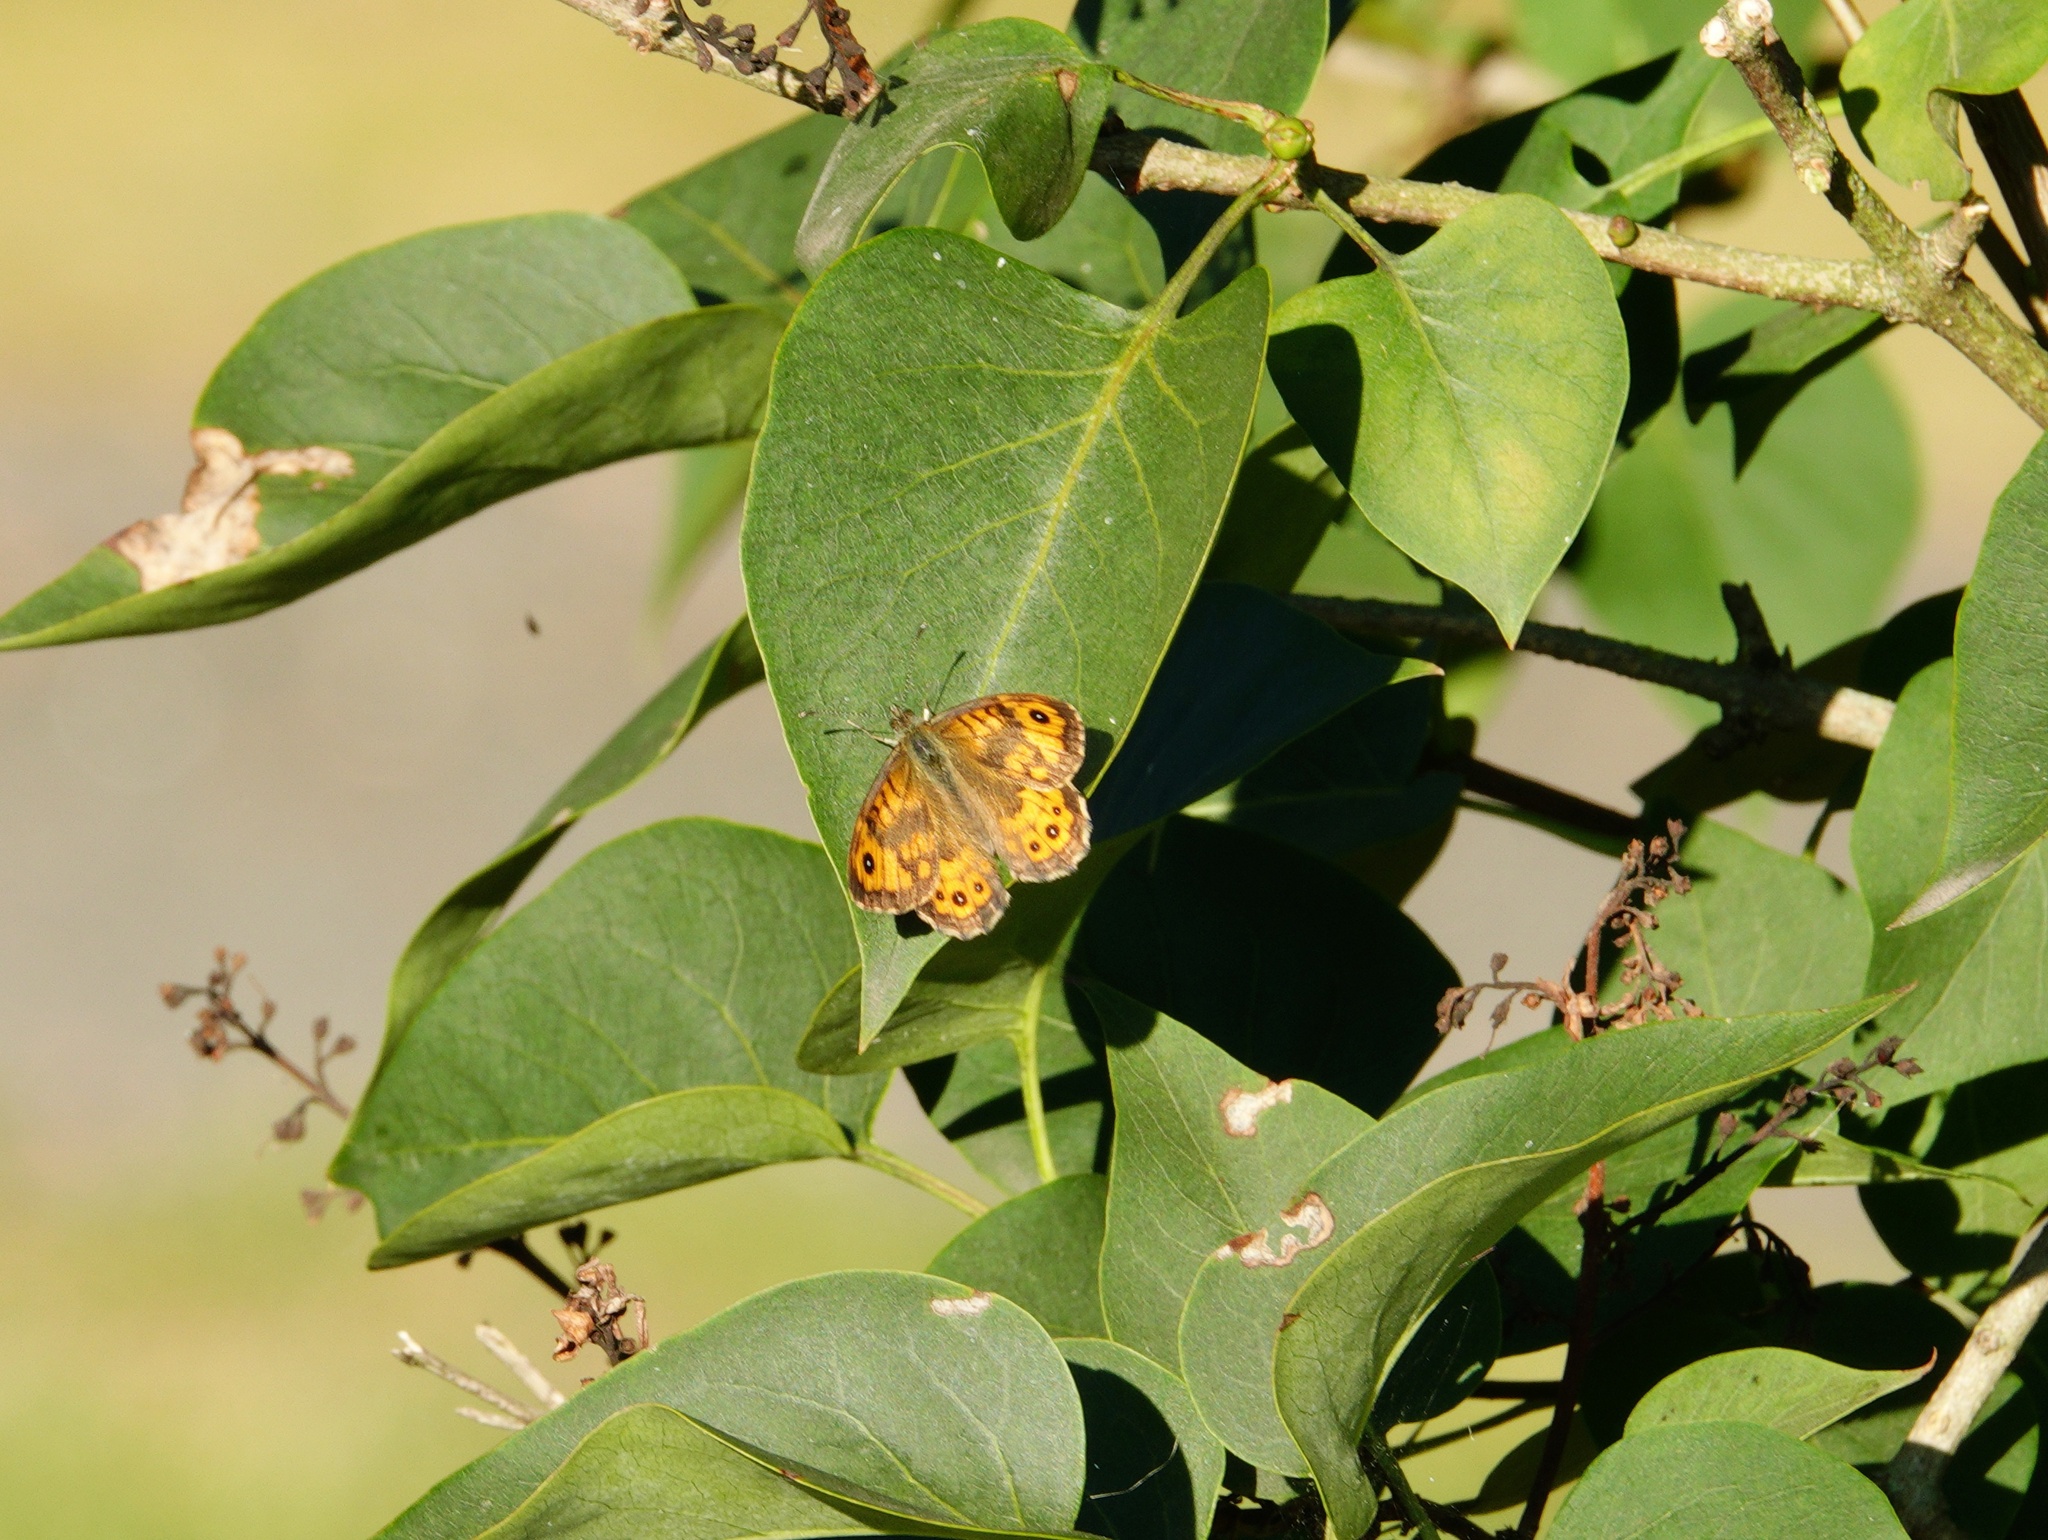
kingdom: Animalia
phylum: Arthropoda
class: Insecta
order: Lepidoptera
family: Nymphalidae
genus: Pararge
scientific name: Pararge Lasiommata megera
